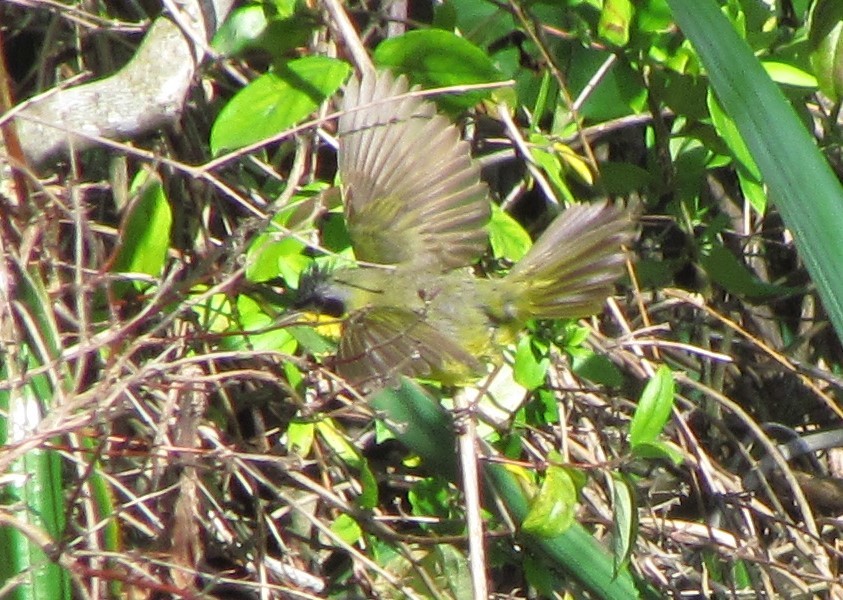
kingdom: Animalia
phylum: Chordata
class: Aves
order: Passeriformes
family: Parulidae
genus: Geothlypis
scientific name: Geothlypis velata
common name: Southern yellowthroat
